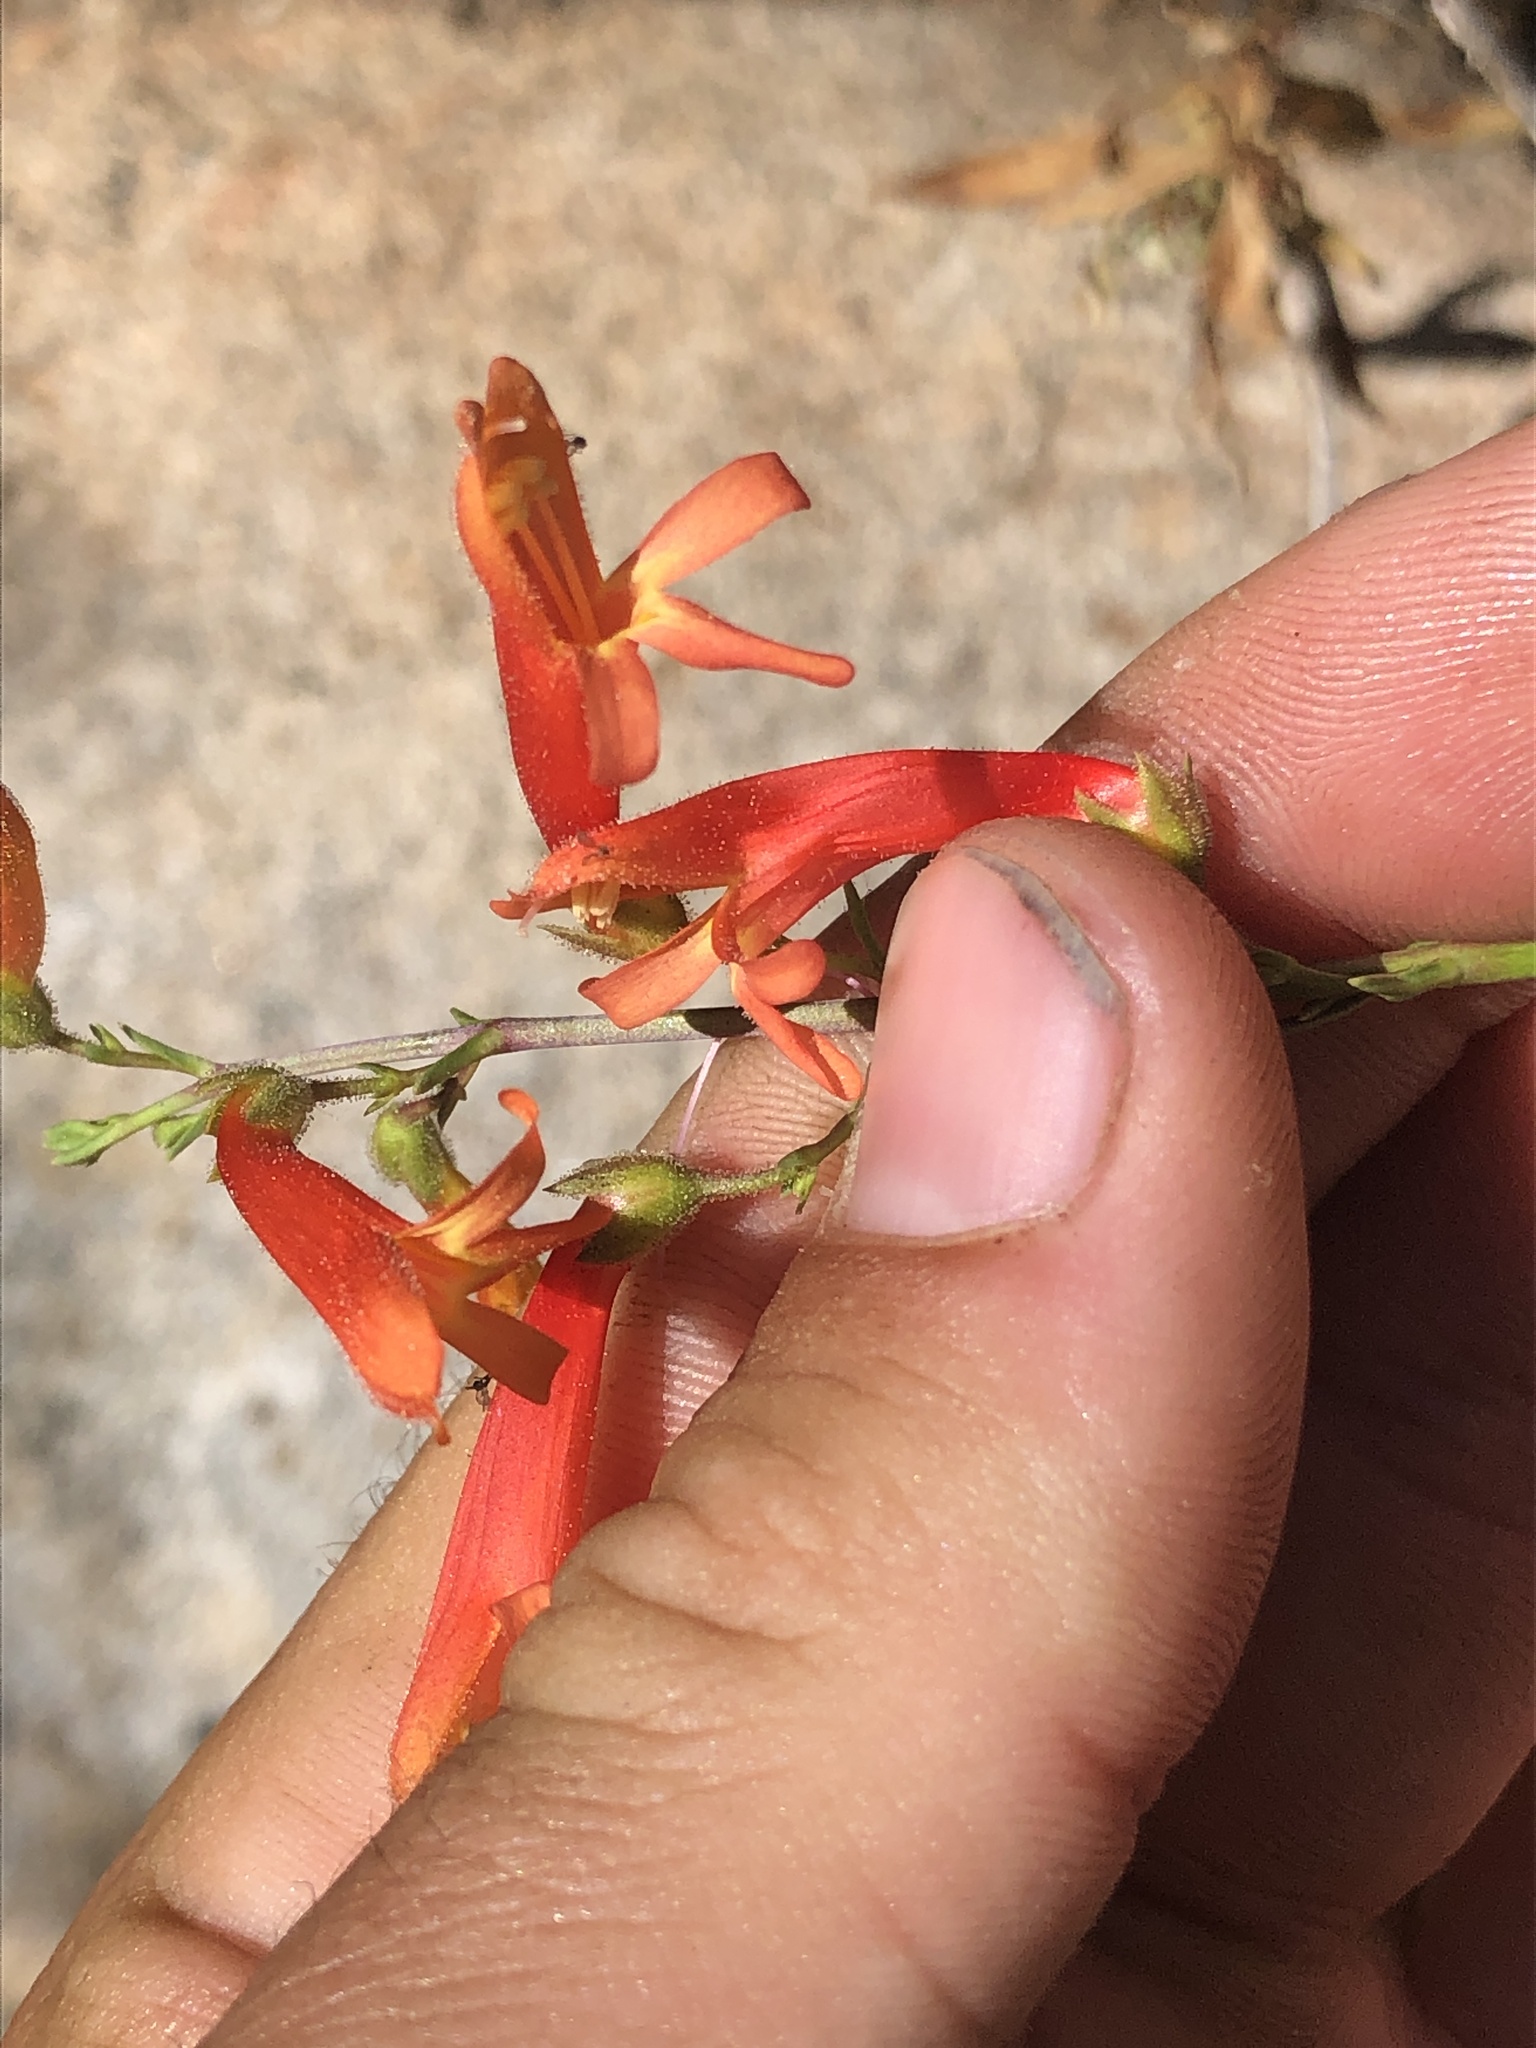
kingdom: Plantae
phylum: Tracheophyta
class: Magnoliopsida
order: Lamiales
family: Plantaginaceae
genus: Penstemon
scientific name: Penstemon rostriflorus
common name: Bridges's penstemon
